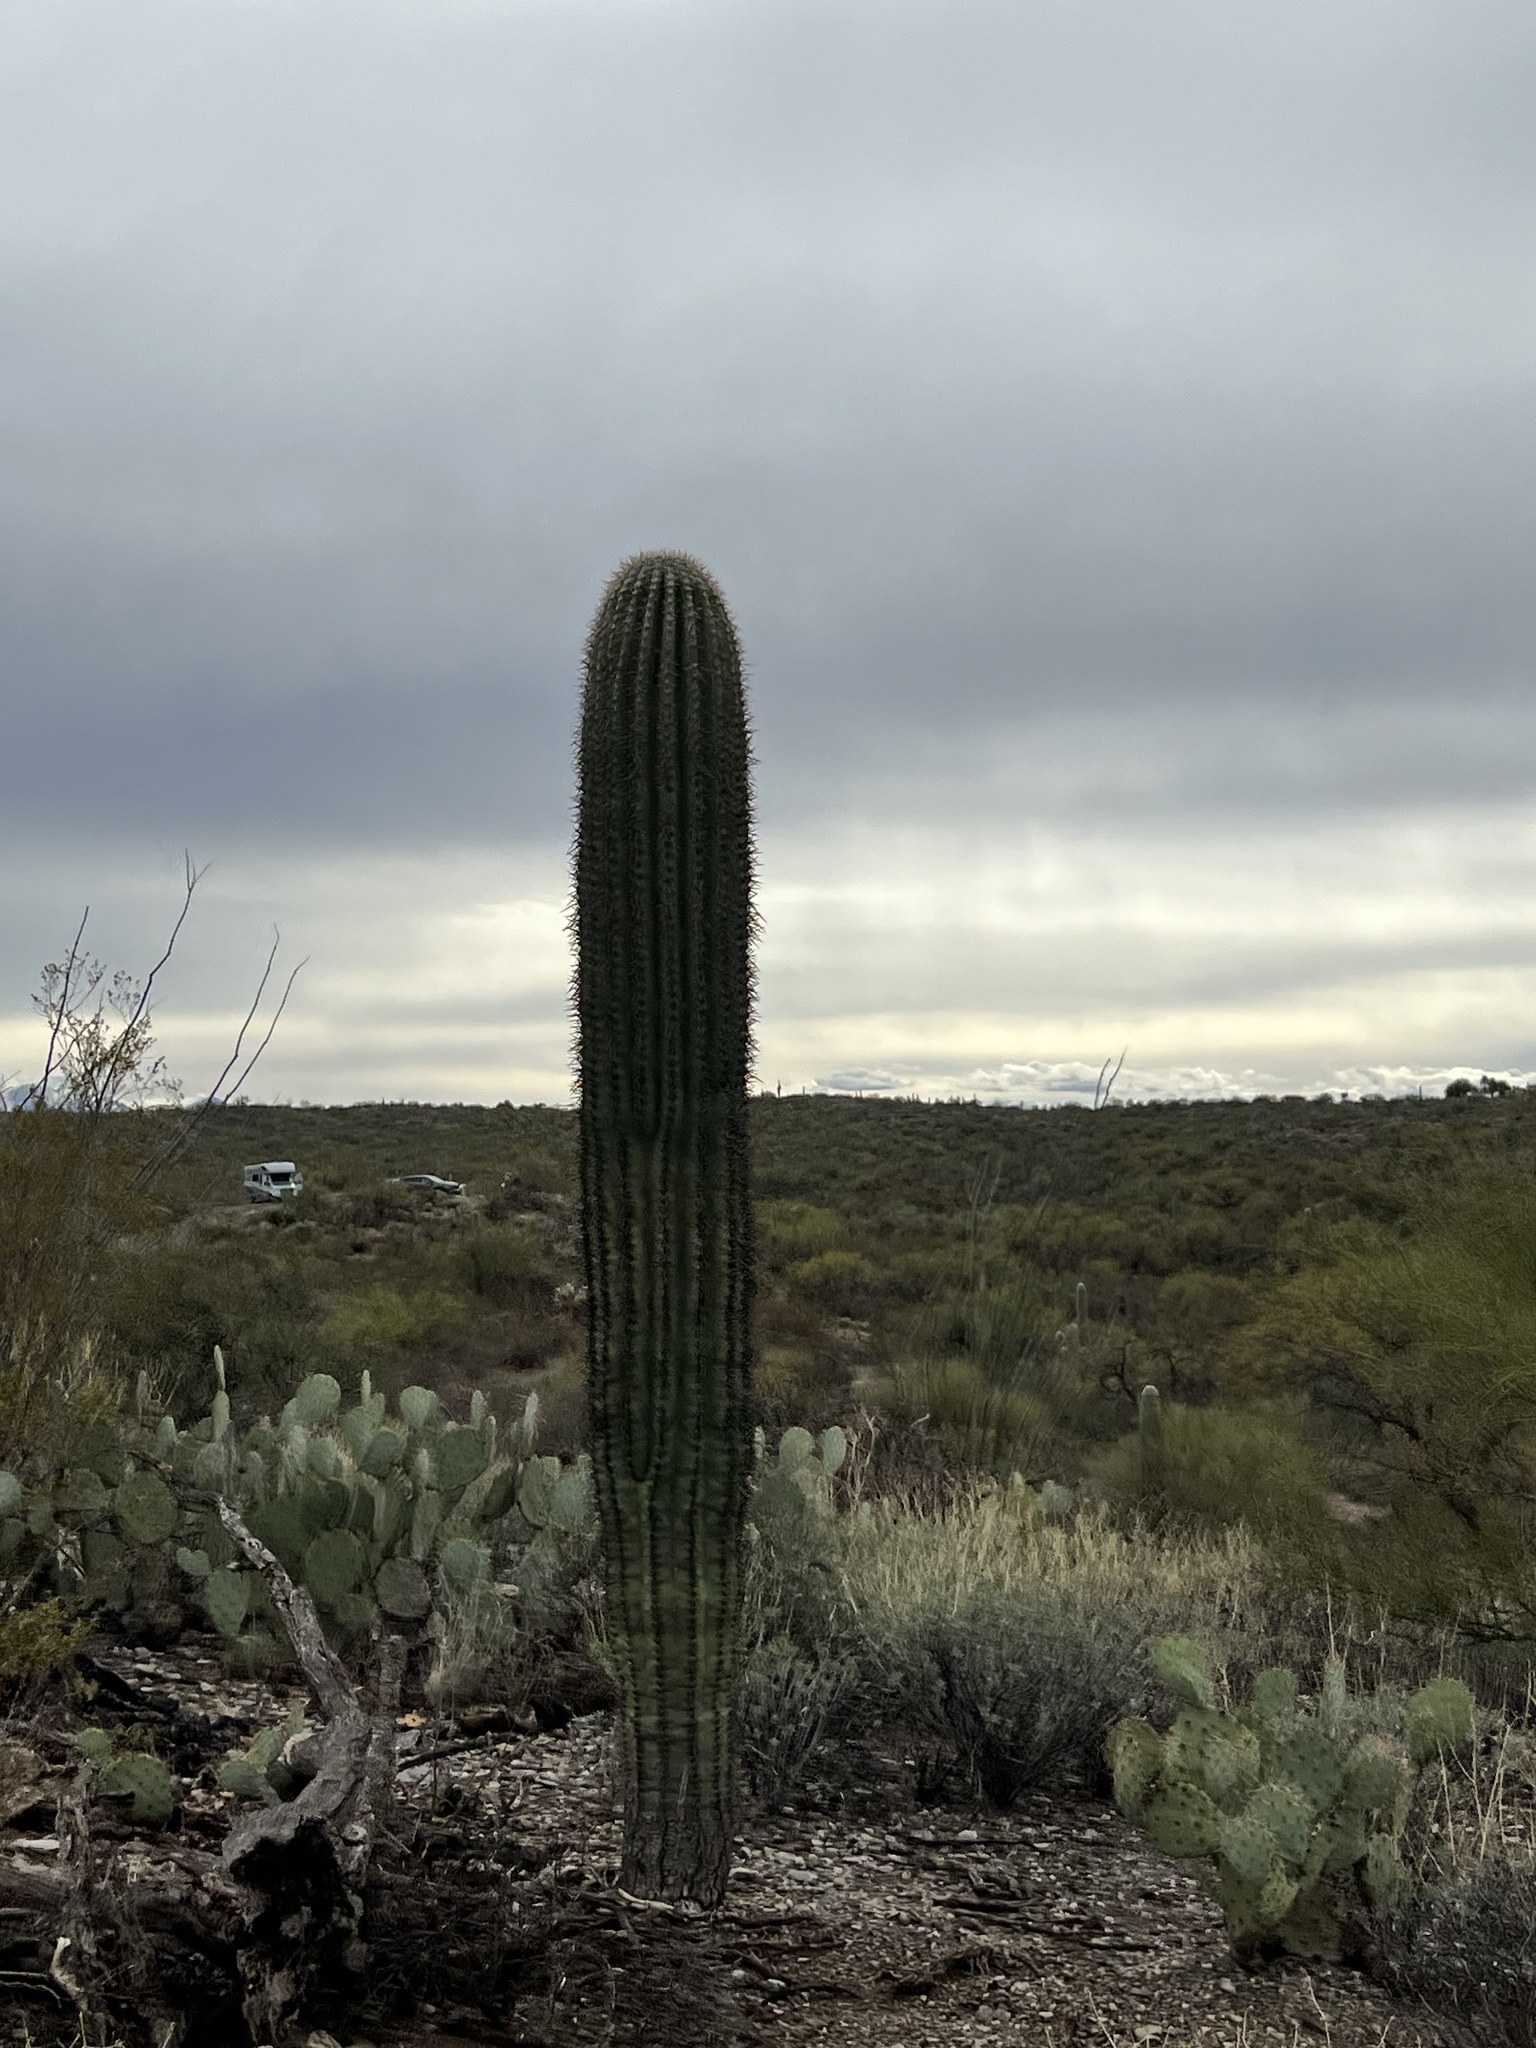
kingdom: Plantae
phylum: Tracheophyta
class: Magnoliopsida
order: Caryophyllales
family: Cactaceae
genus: Carnegiea
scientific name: Carnegiea gigantea
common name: Saguaro
